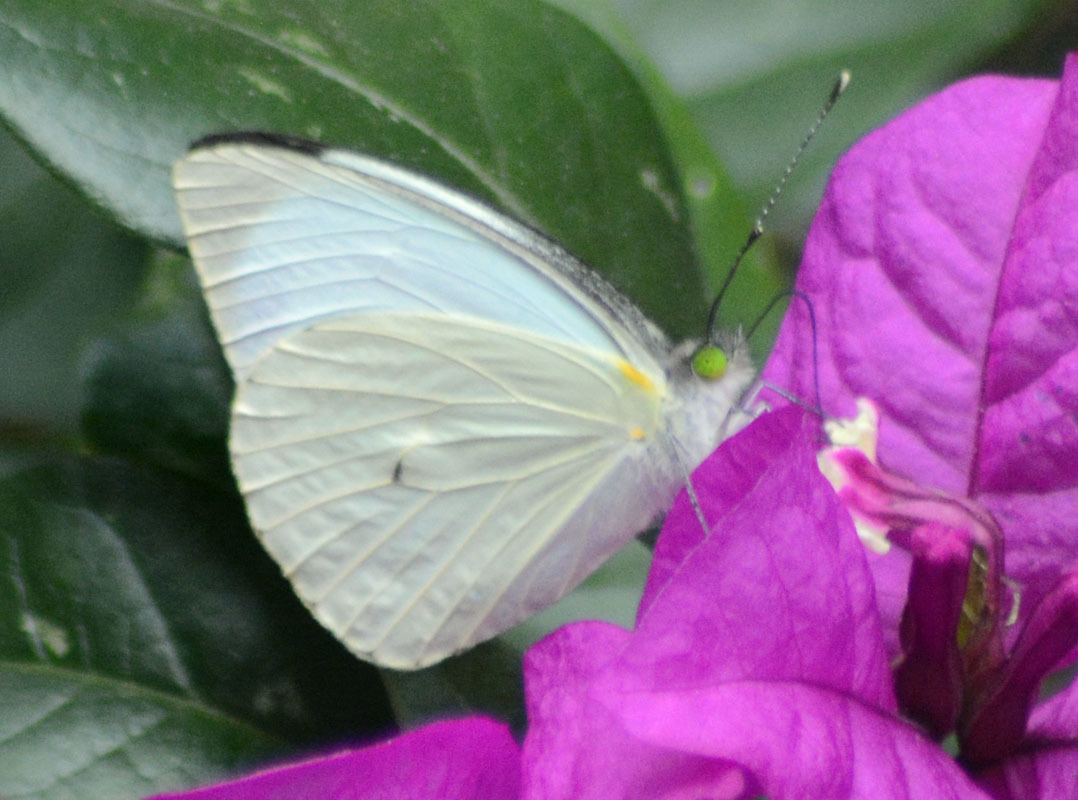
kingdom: Animalia
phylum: Arthropoda
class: Insecta
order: Lepidoptera
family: Pieridae
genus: Leptophobia
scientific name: Leptophobia aripa
